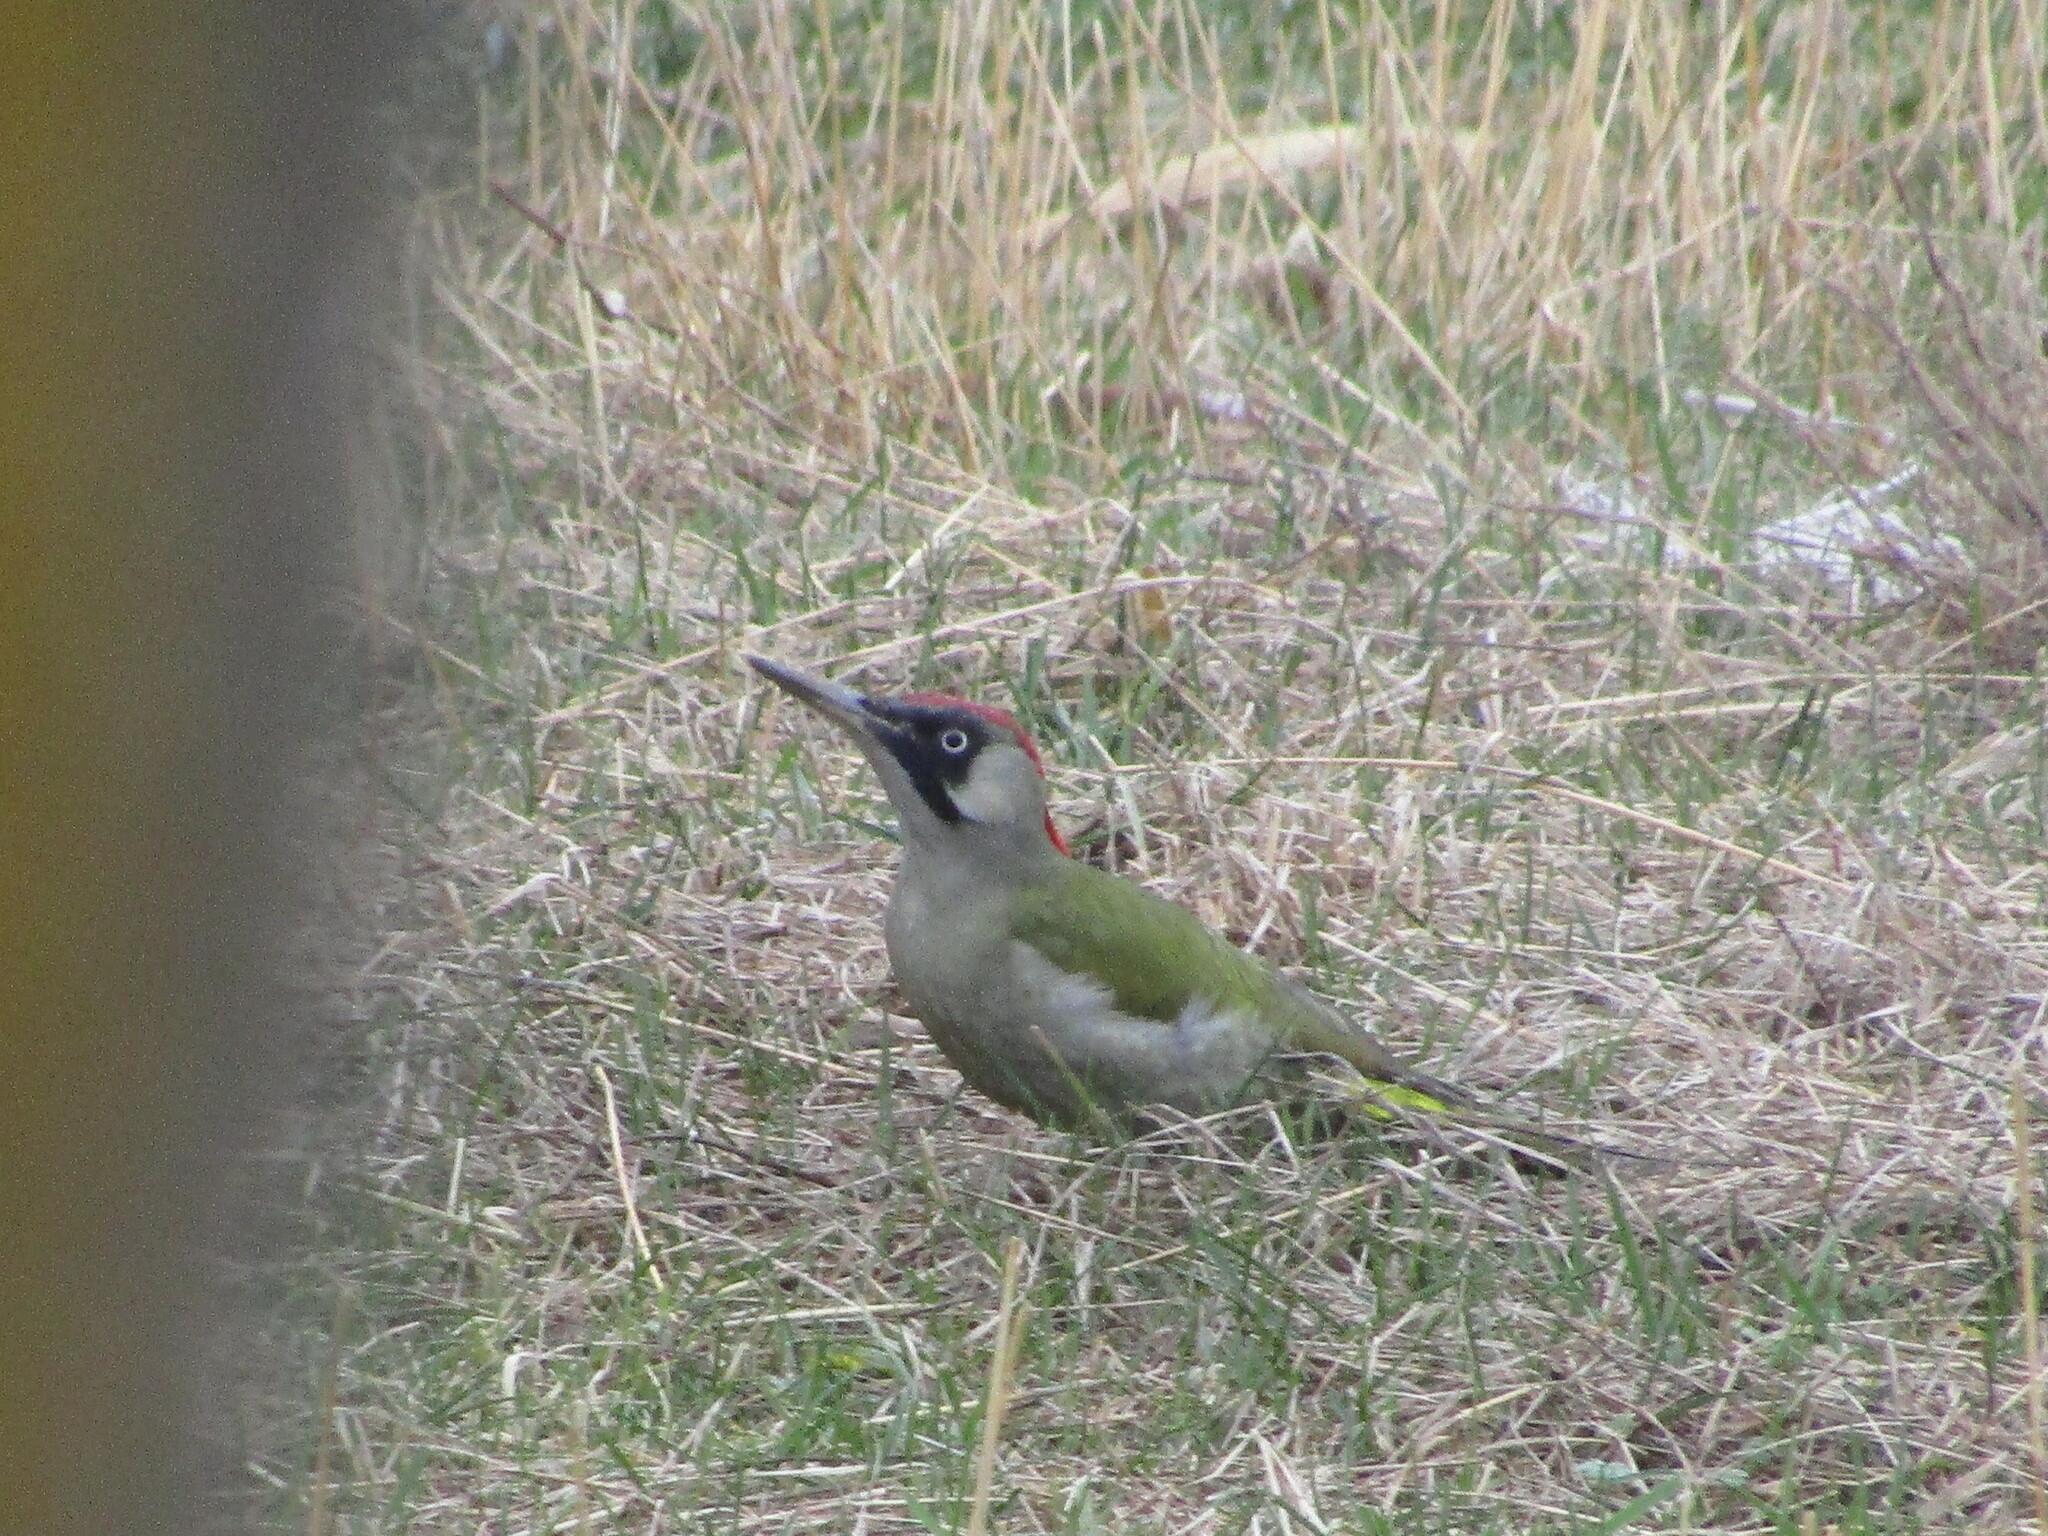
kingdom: Animalia
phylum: Chordata
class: Aves
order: Piciformes
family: Picidae
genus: Picus
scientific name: Picus viridis
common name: European green woodpecker
